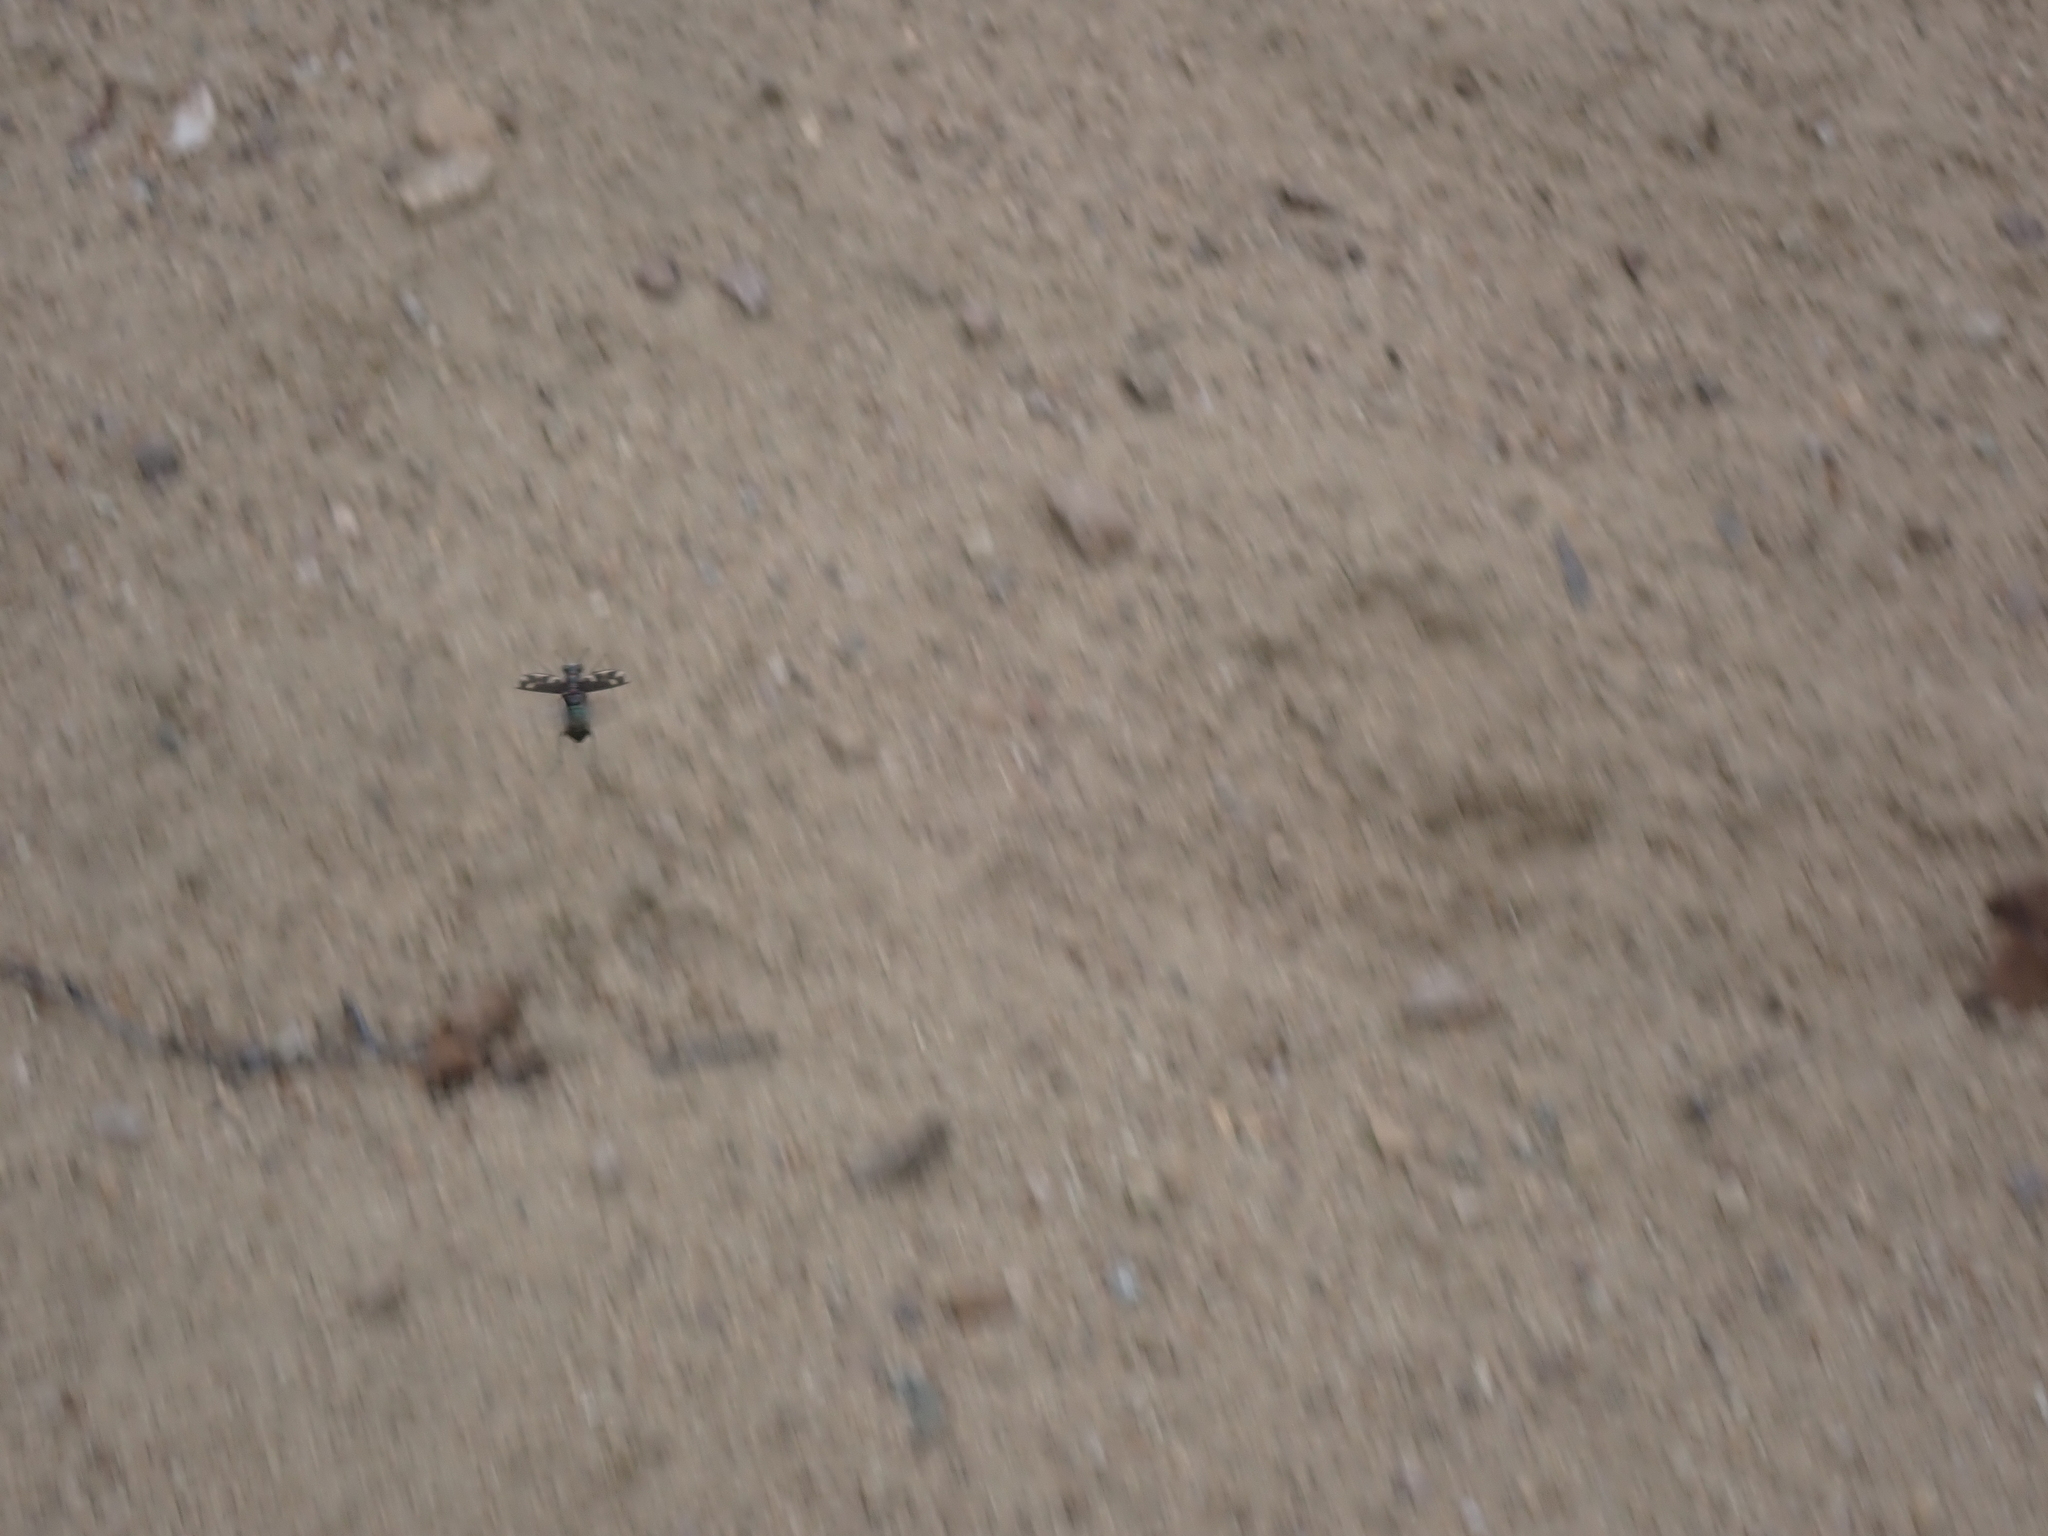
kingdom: Animalia
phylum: Arthropoda
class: Insecta
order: Coleoptera
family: Carabidae
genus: Cicindela
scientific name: Cicindela formosa
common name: Big sand tiger beetle
